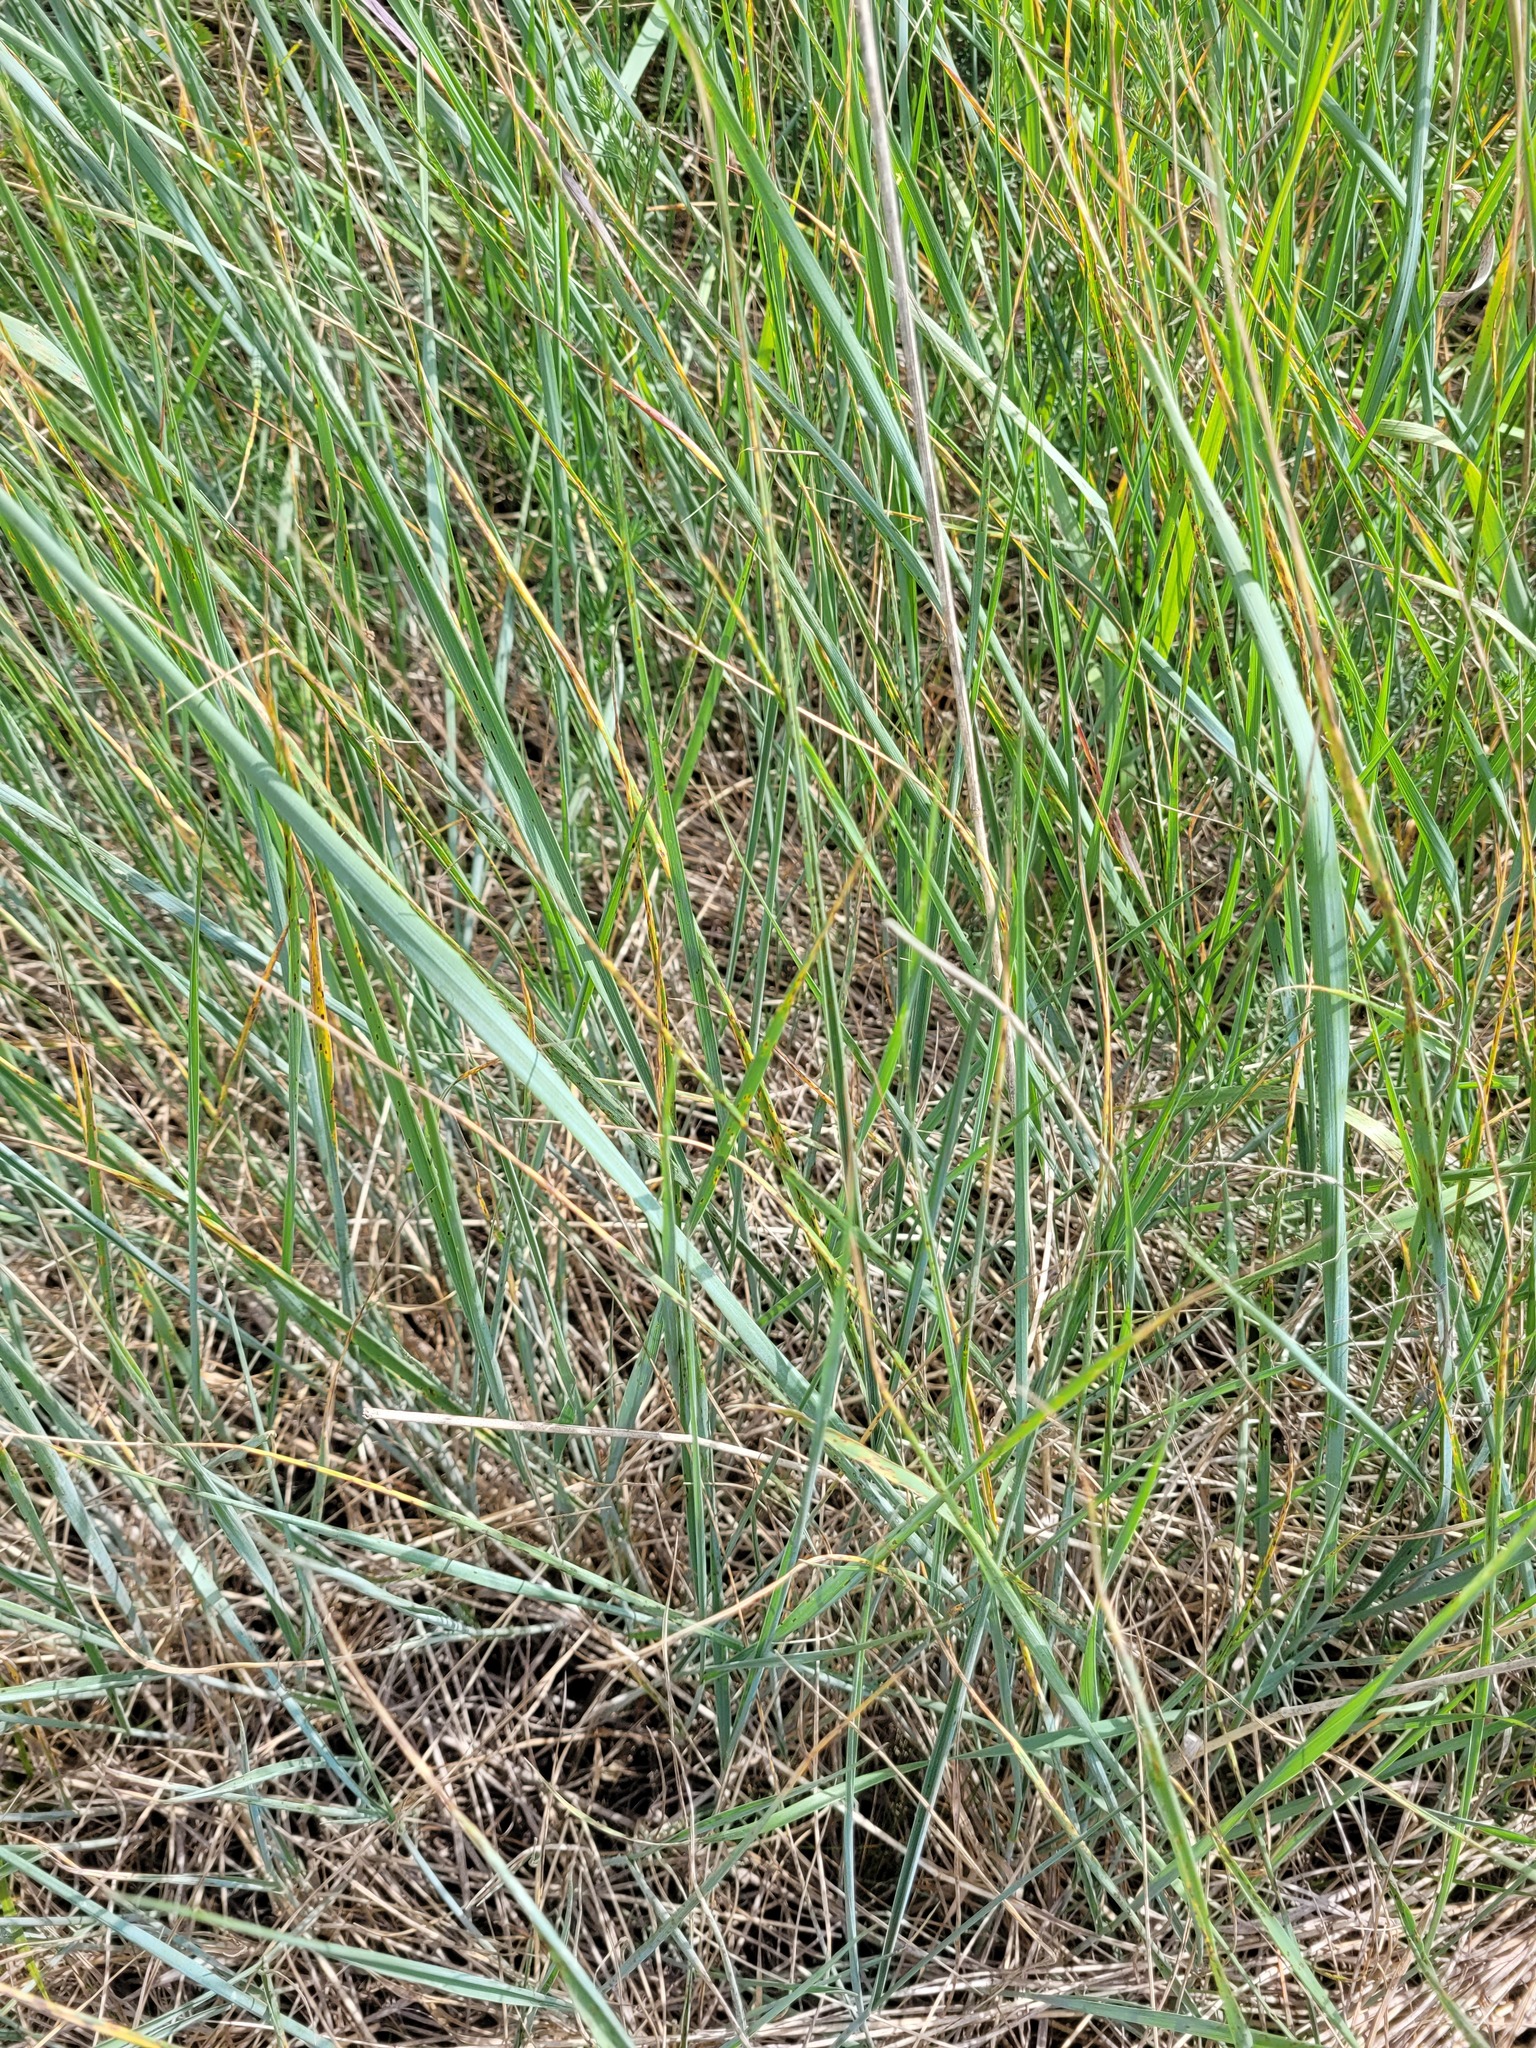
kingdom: Plantae
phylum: Tracheophyta
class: Liliopsida
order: Poales
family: Poaceae
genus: Thinopyrum
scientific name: Thinopyrum intermedium
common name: Intermediate wheatgrass
